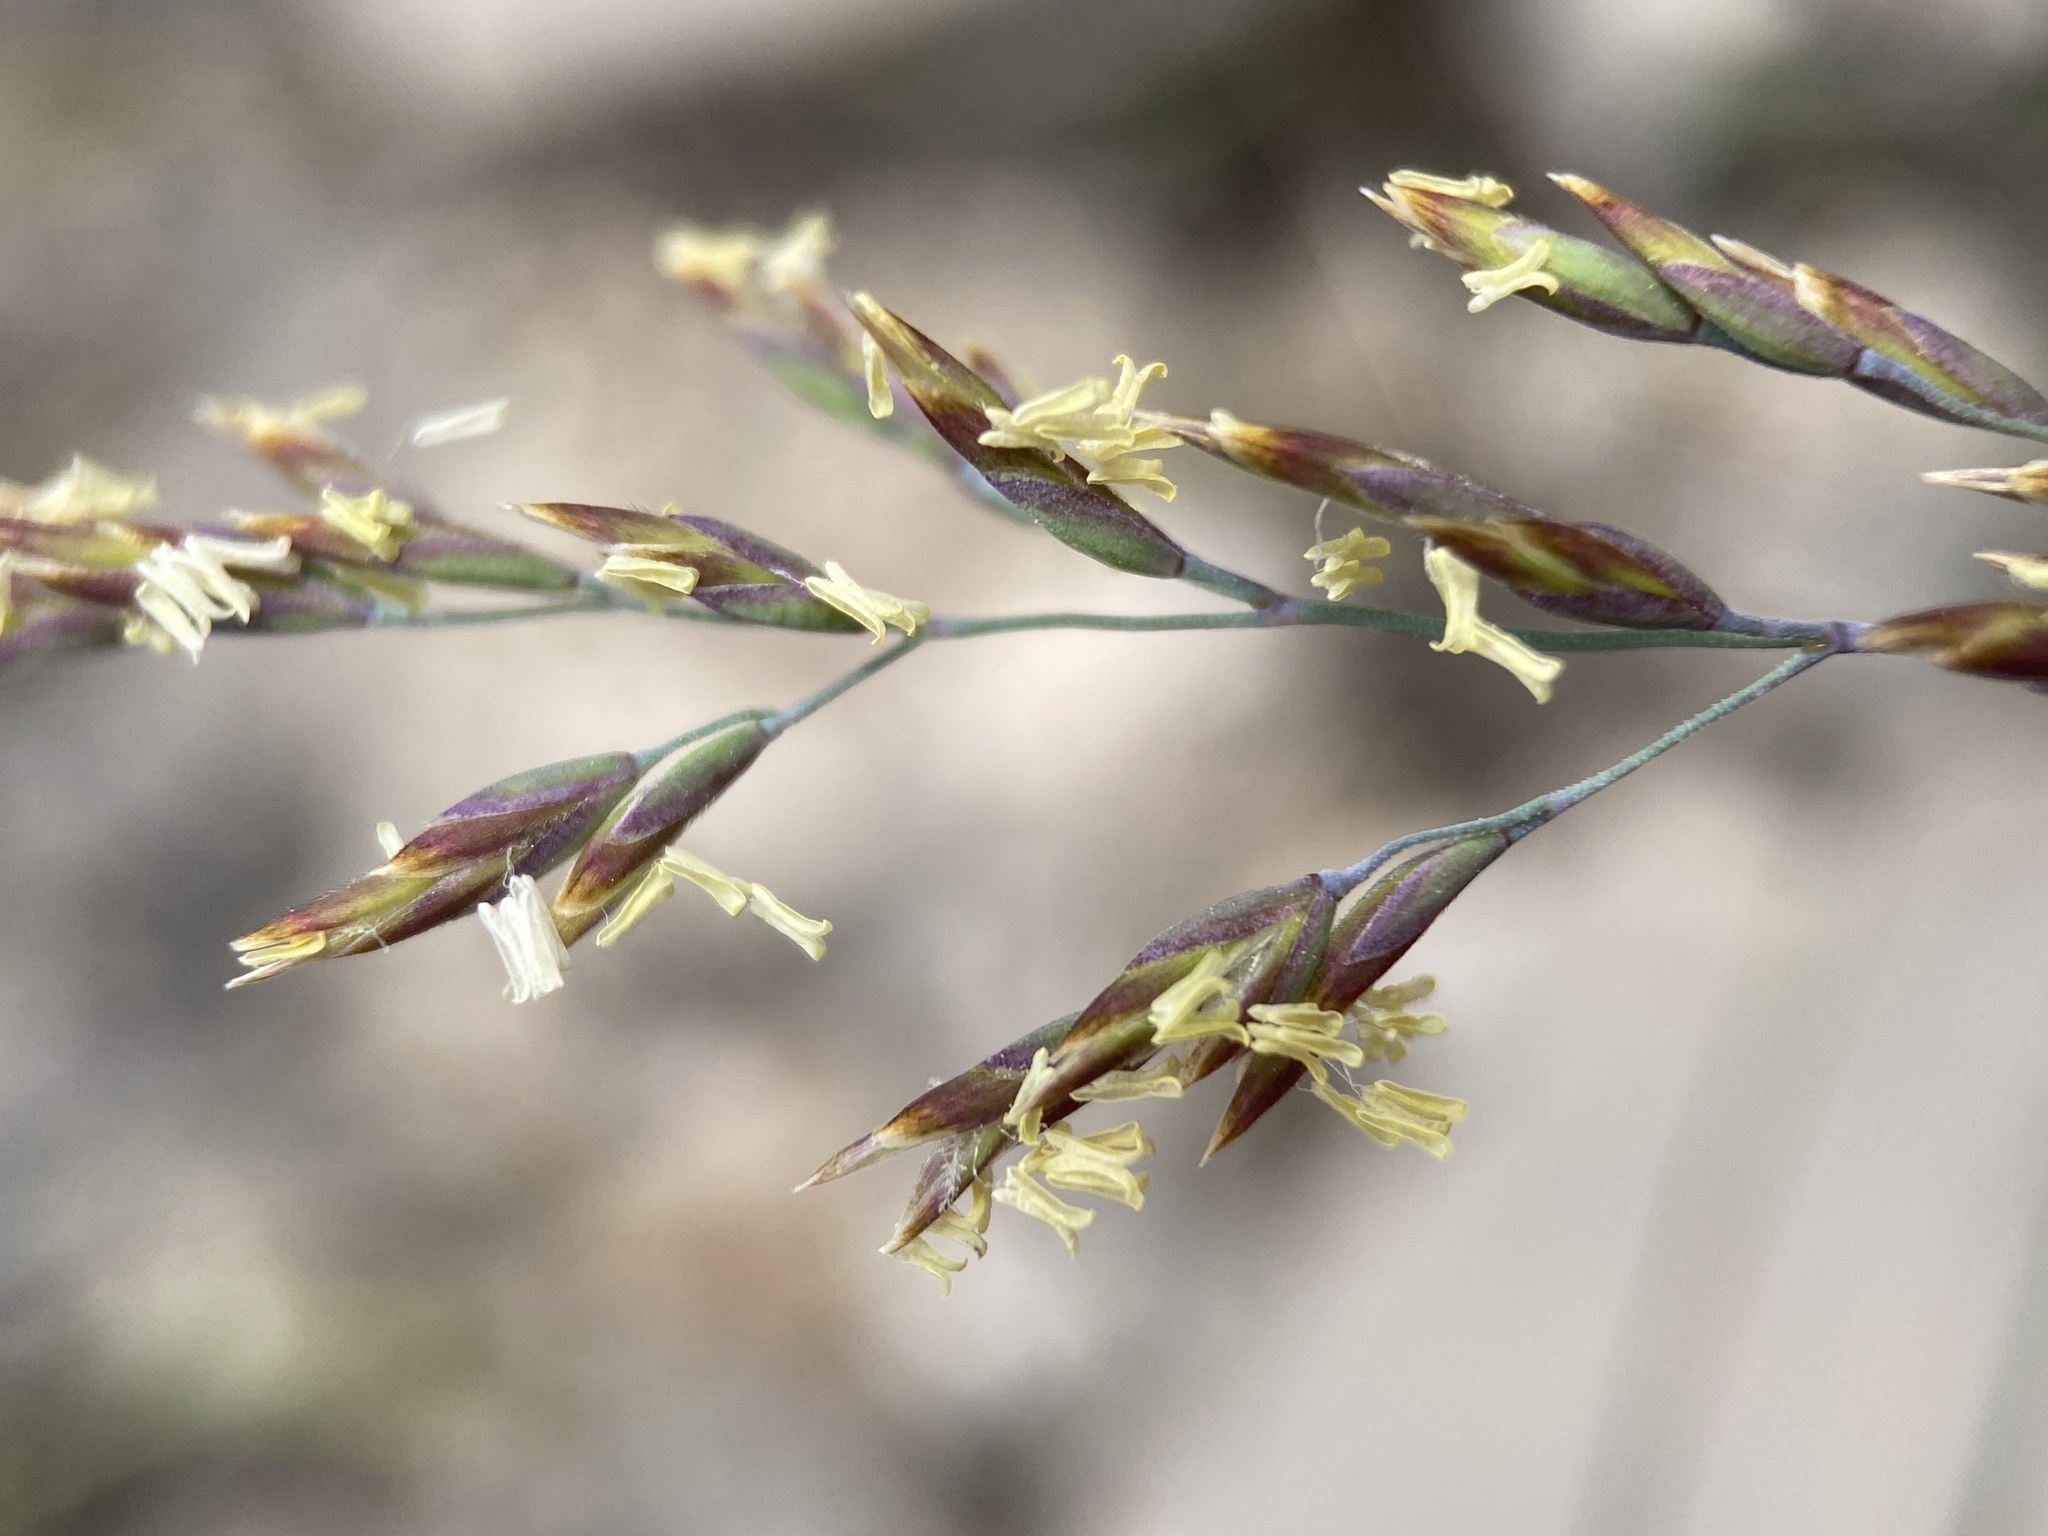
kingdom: Plantae
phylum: Tracheophyta
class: Liliopsida
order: Poales
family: Poaceae
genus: Poa
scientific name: Poa secunda
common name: Sandberg bluegrass
